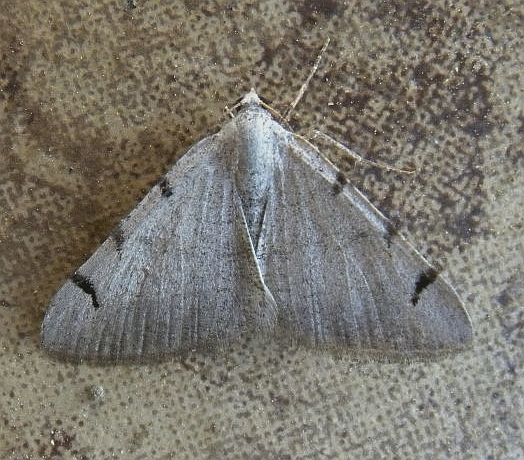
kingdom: Animalia
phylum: Arthropoda
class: Insecta
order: Lepidoptera
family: Geometridae
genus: Digrammia
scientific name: Digrammia triviata
